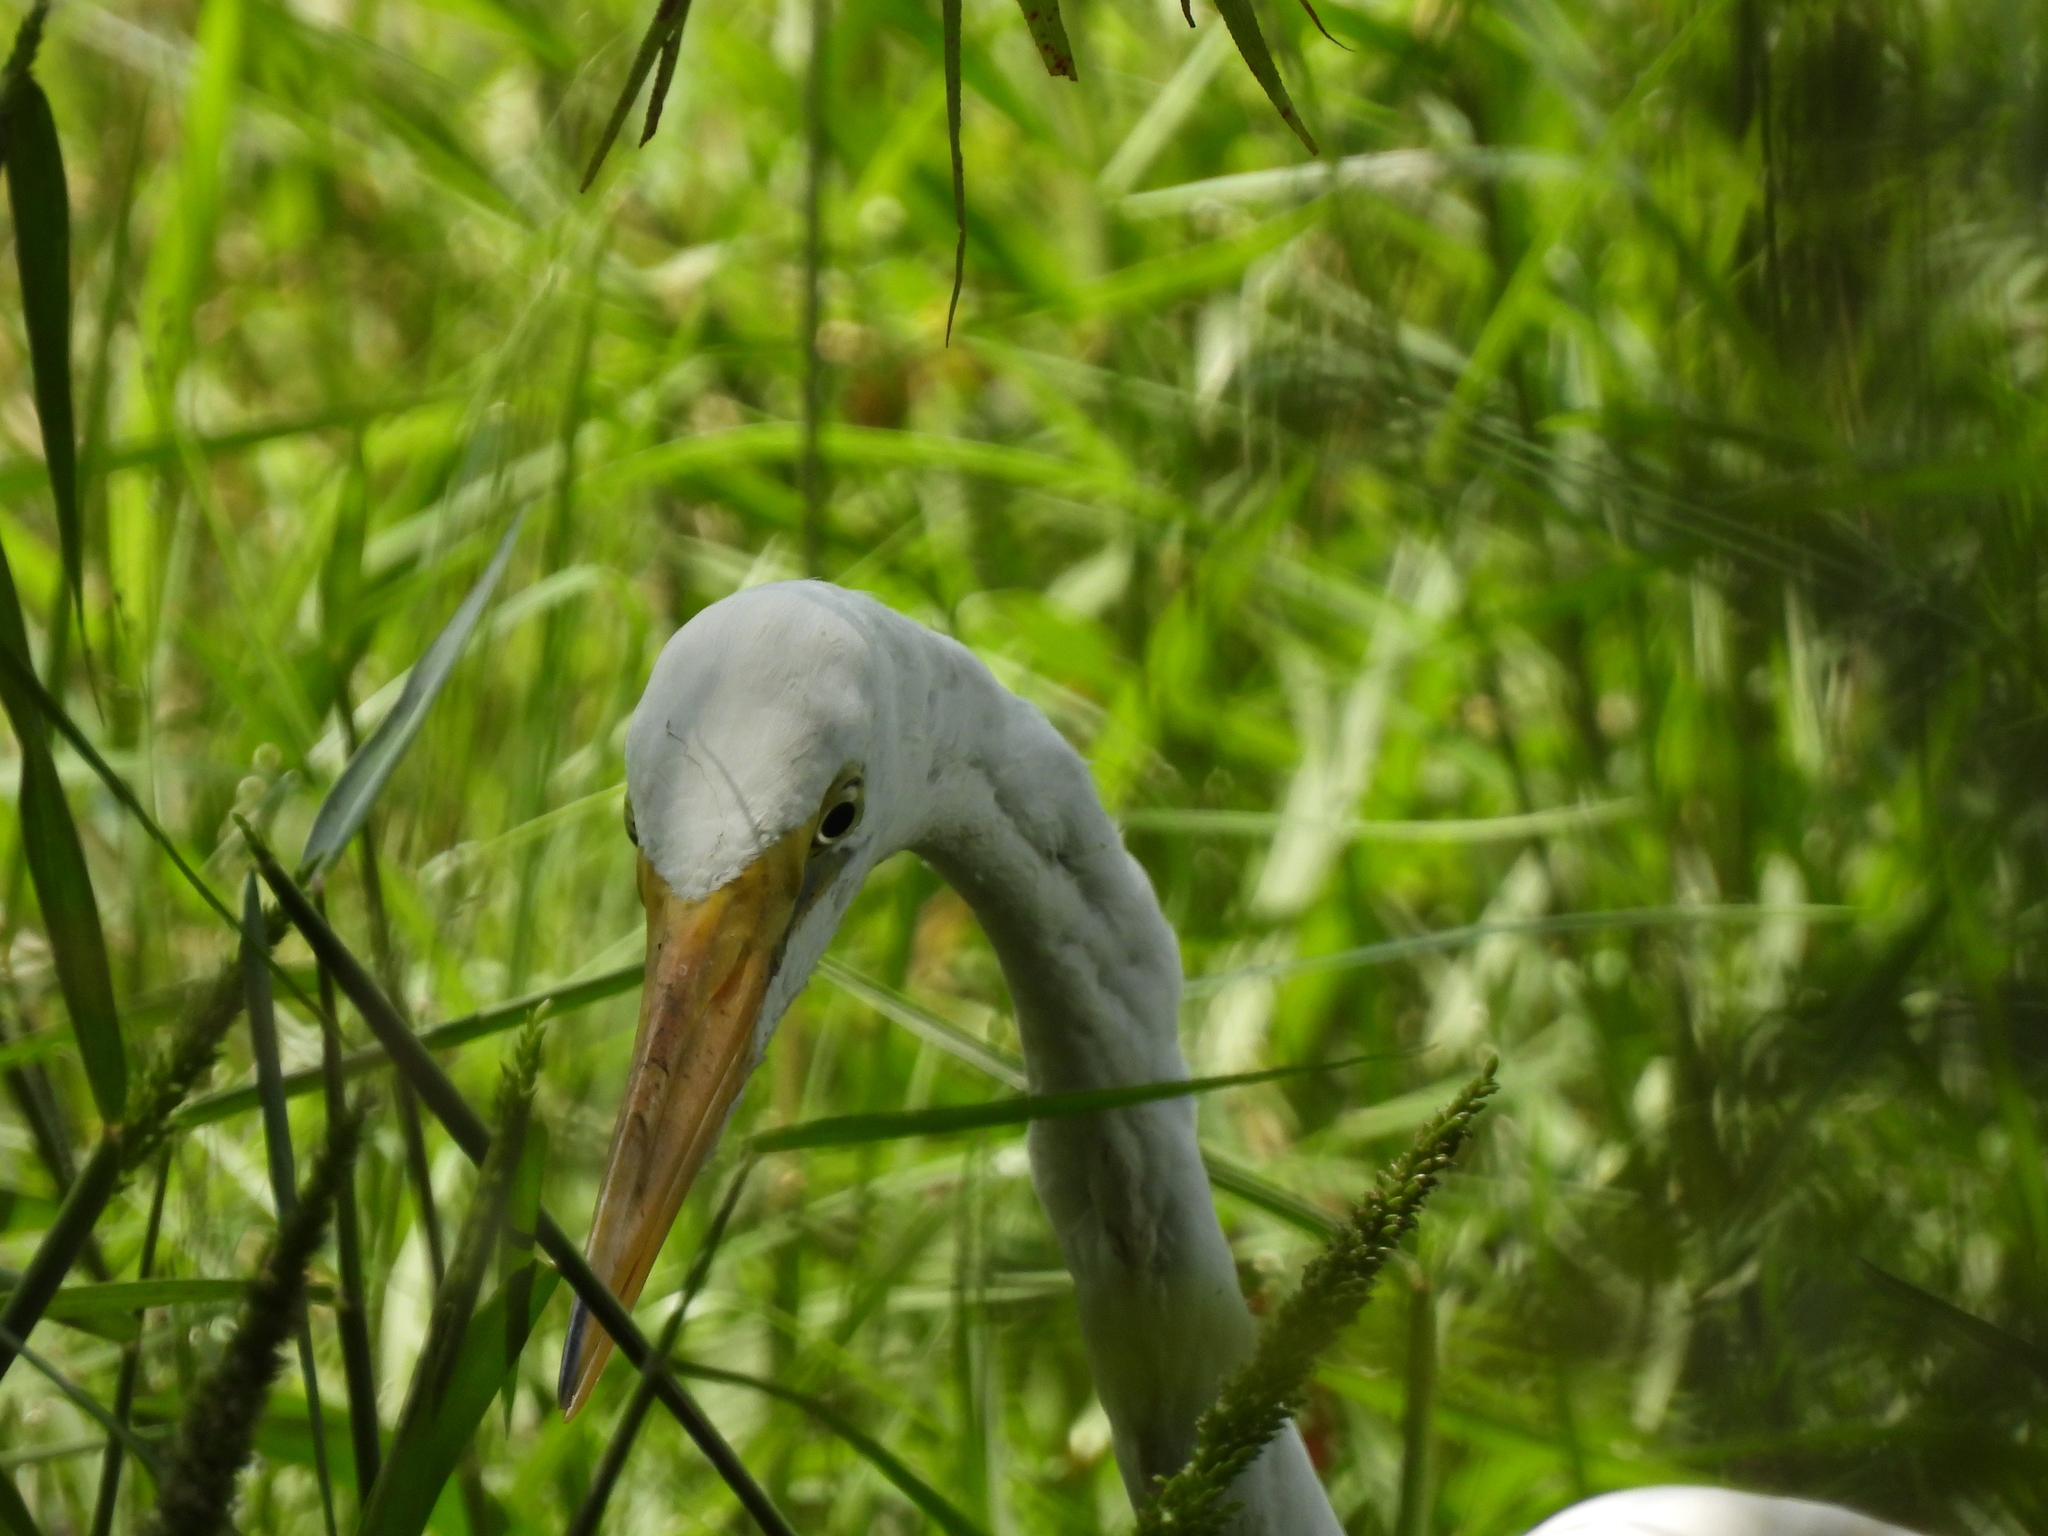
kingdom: Animalia
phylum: Chordata
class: Aves
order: Pelecaniformes
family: Ardeidae
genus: Ardea
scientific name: Ardea alba
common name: Great egret
